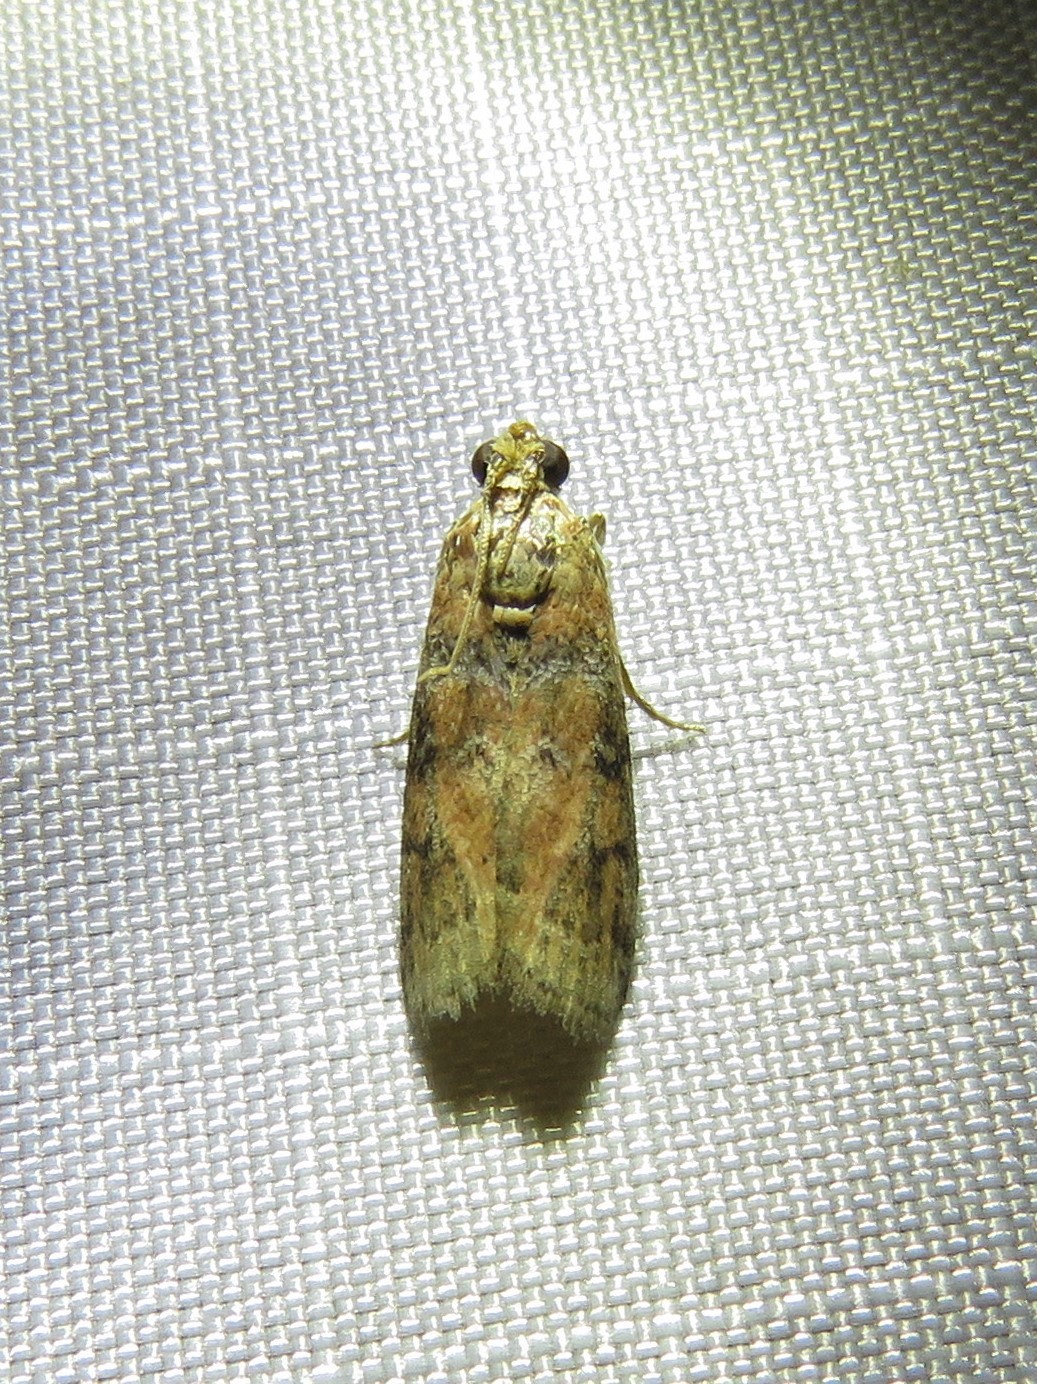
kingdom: Animalia
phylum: Arthropoda
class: Insecta
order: Lepidoptera
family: Pyralidae
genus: Sciota
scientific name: Sciota
